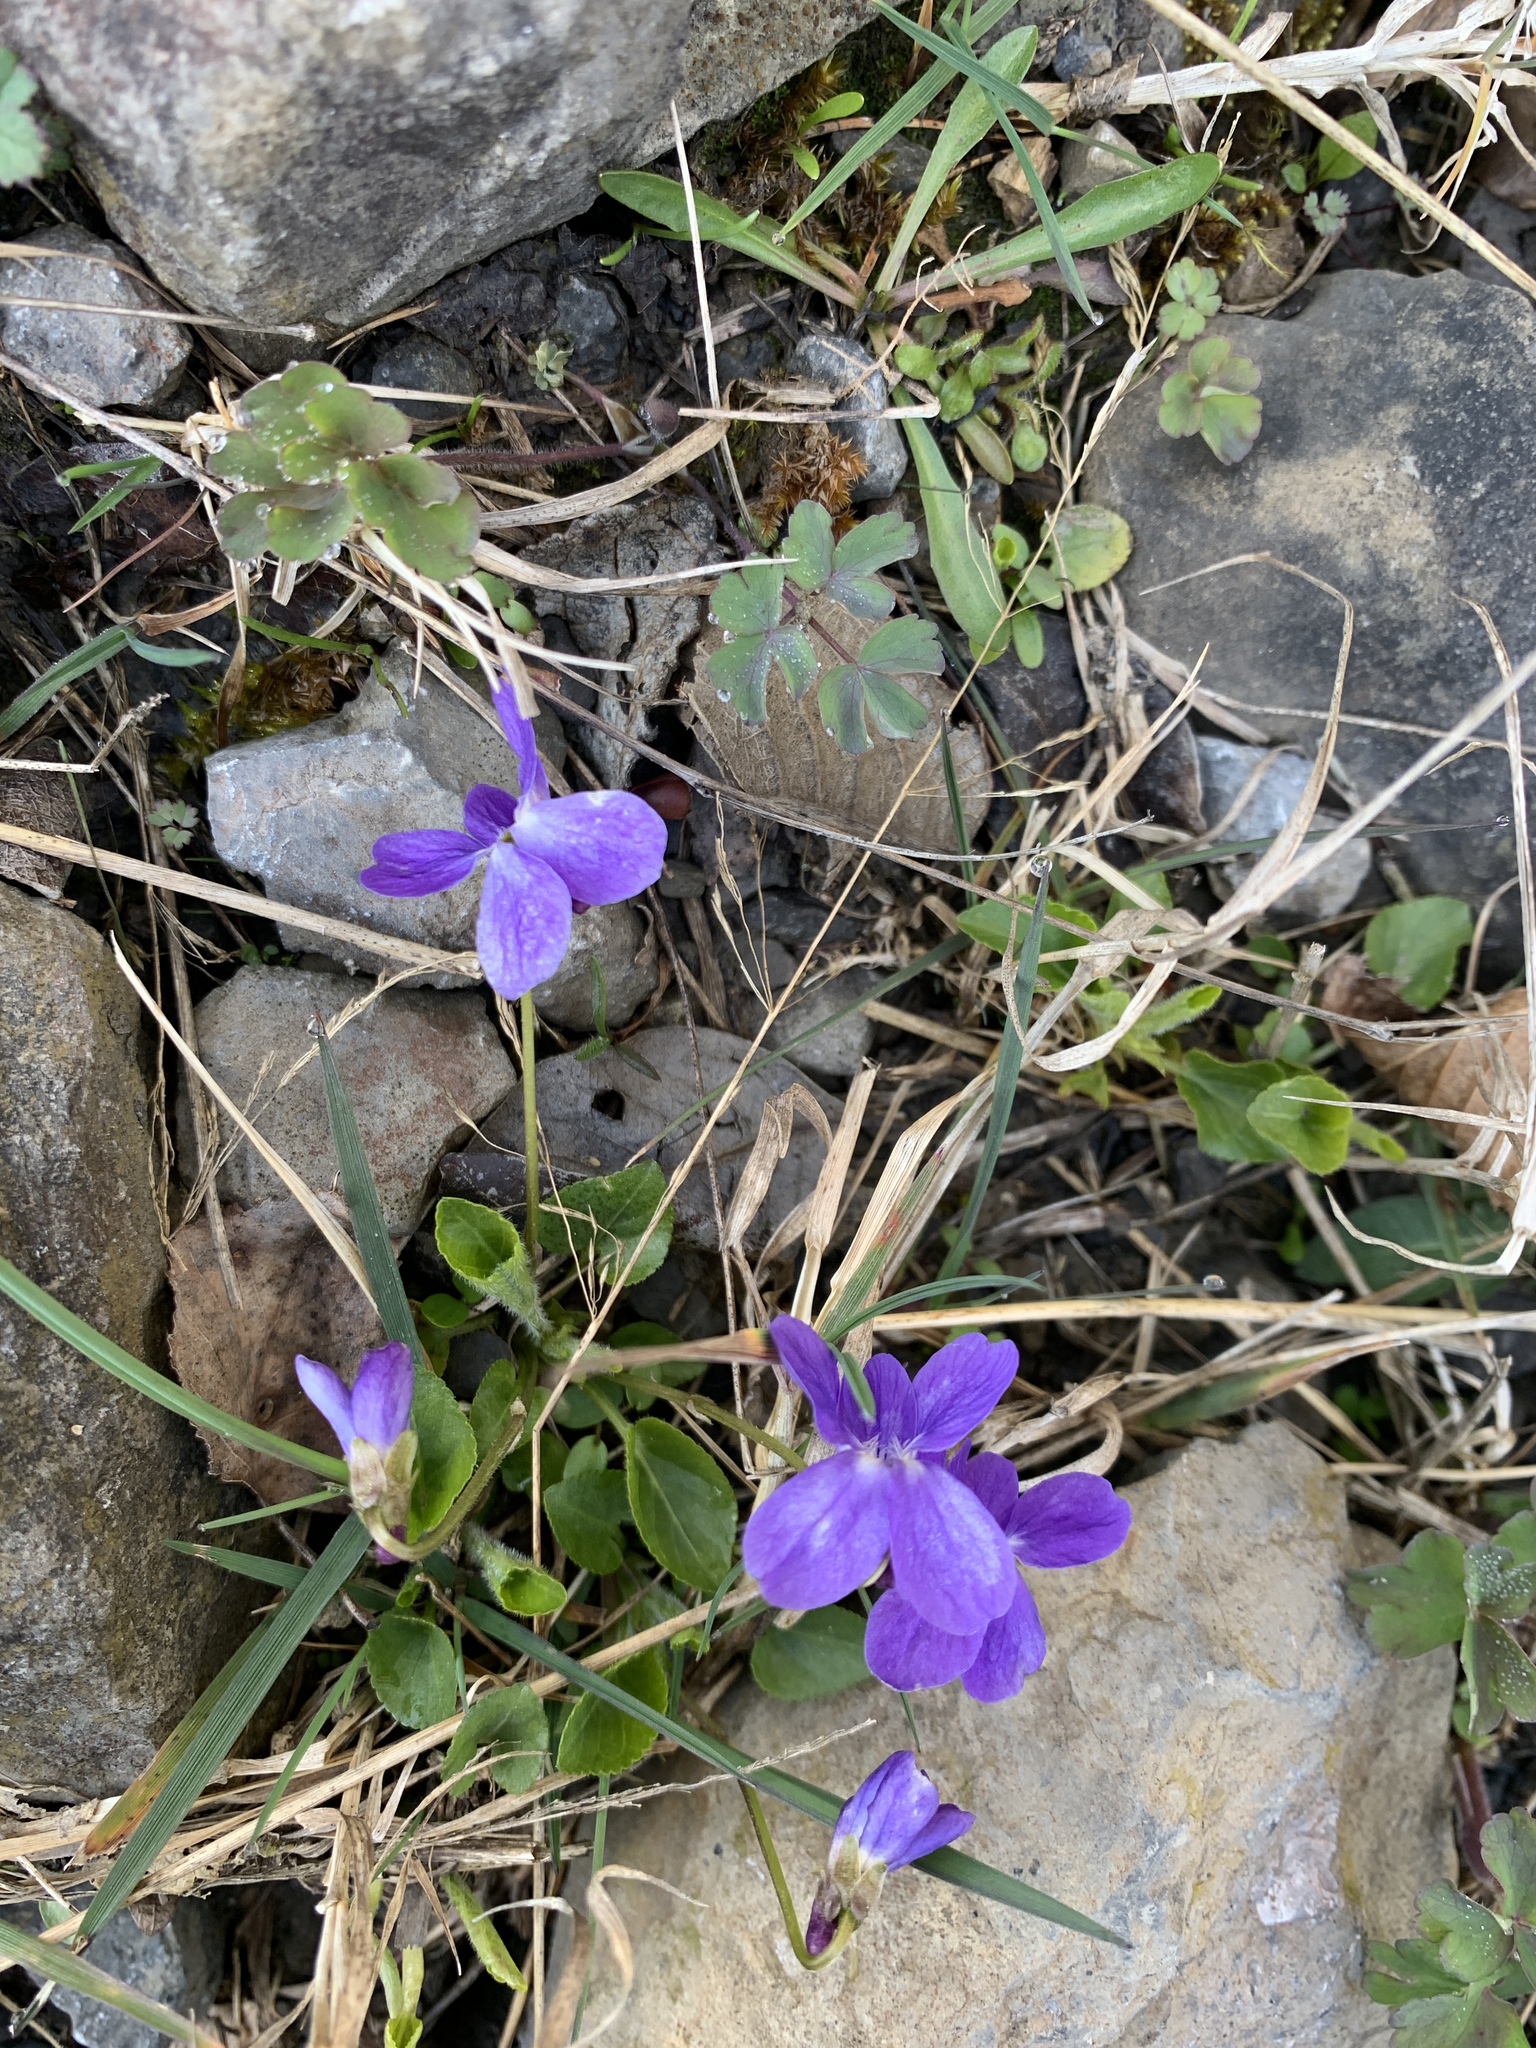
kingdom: Plantae
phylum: Tracheophyta
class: Magnoliopsida
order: Malpighiales
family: Violaceae
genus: Viola
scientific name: Viola riviniana
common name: Common dog-violet
